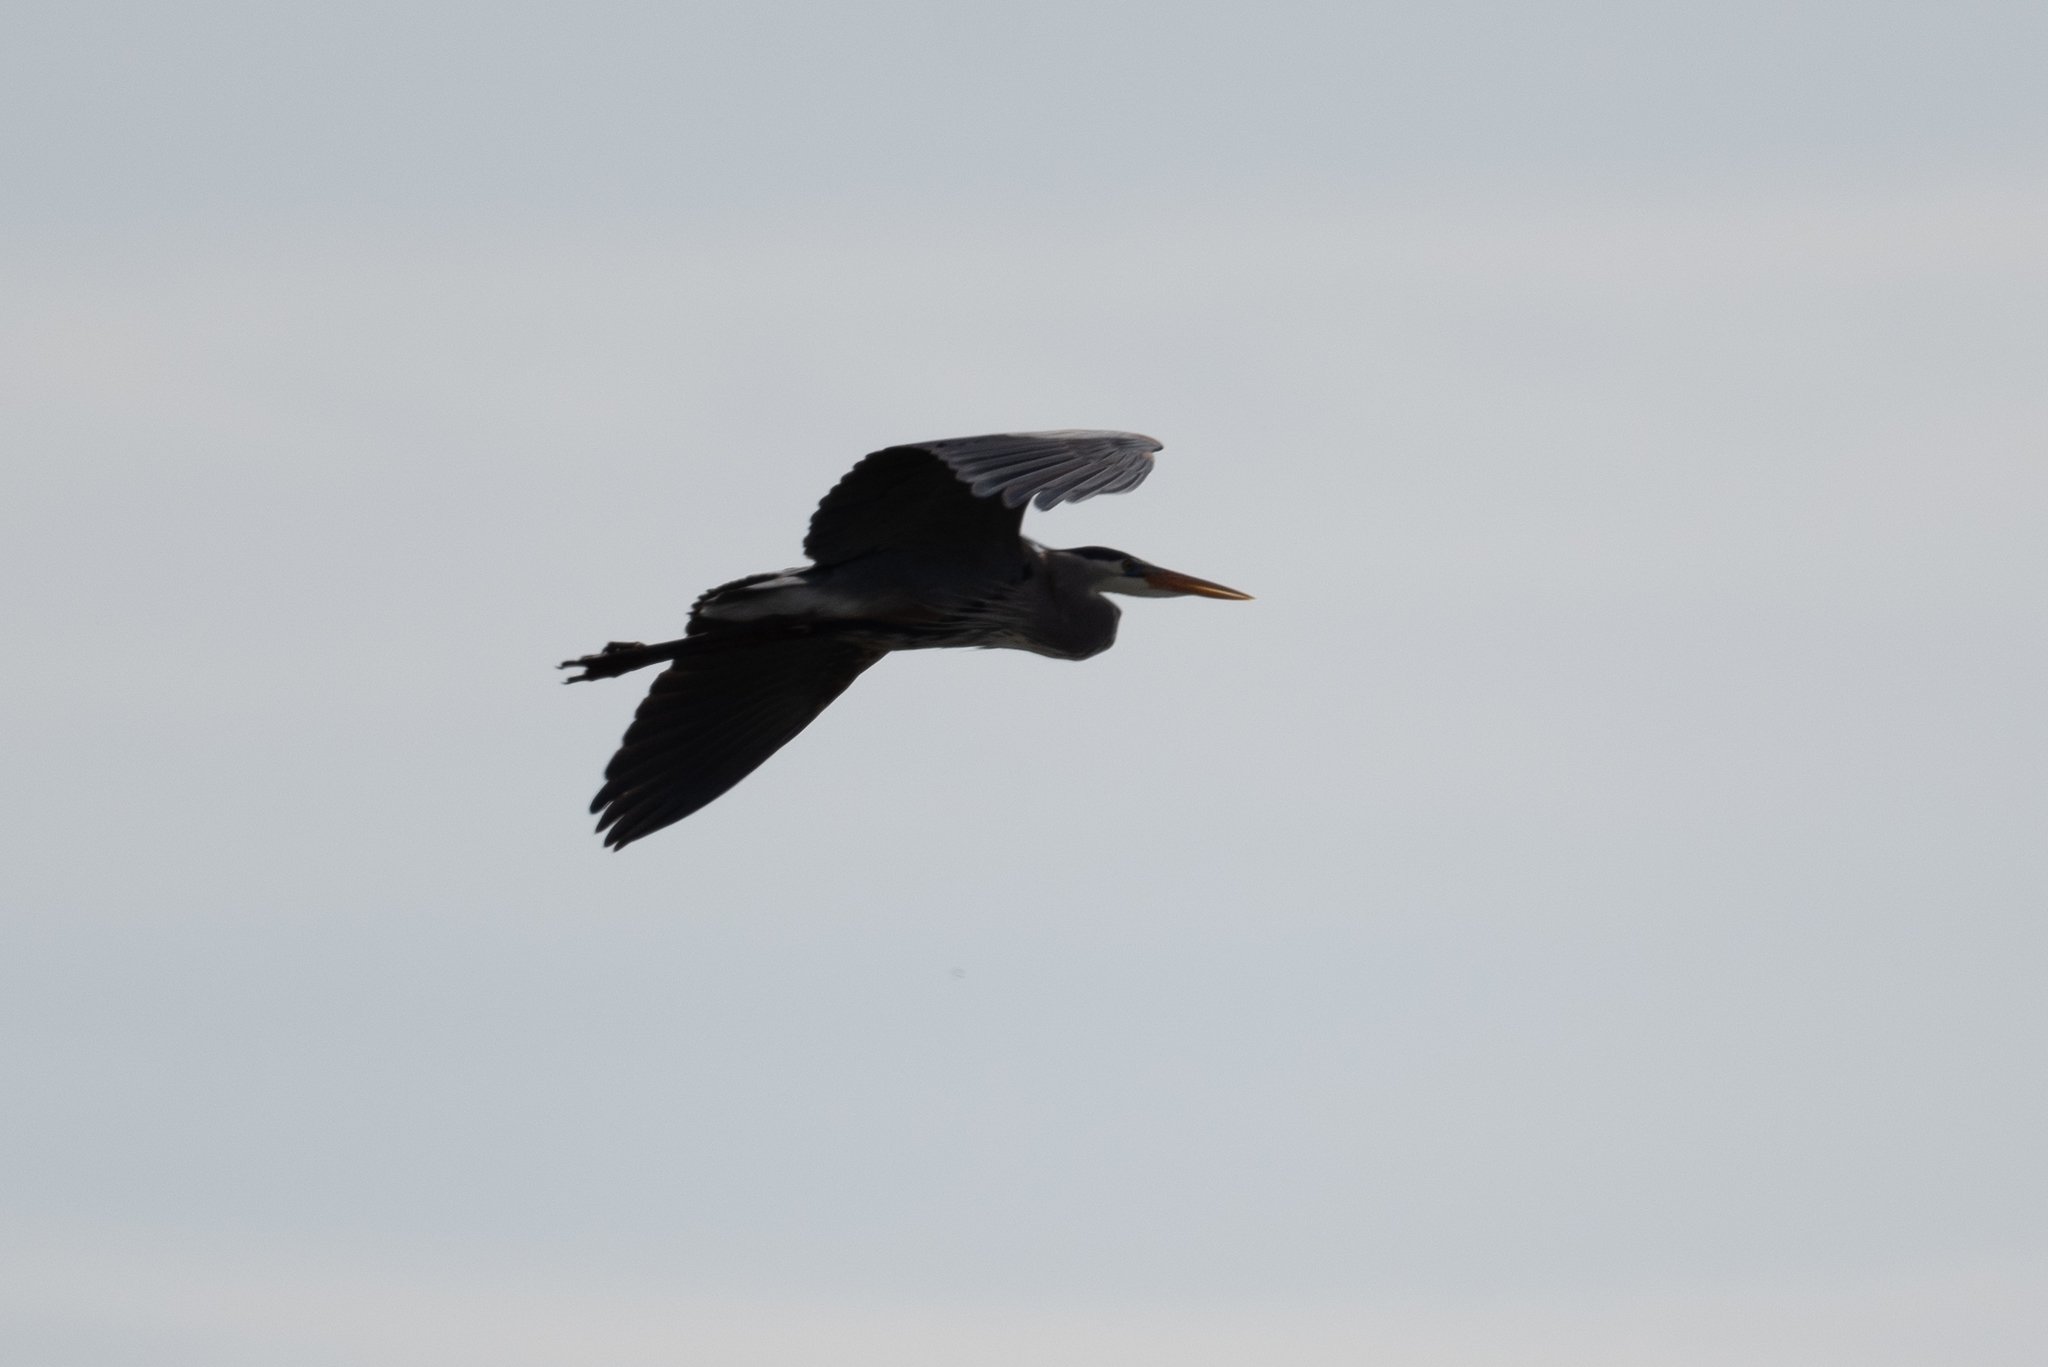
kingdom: Animalia
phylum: Chordata
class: Aves
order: Pelecaniformes
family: Ardeidae
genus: Ardea
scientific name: Ardea herodias
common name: Great blue heron
